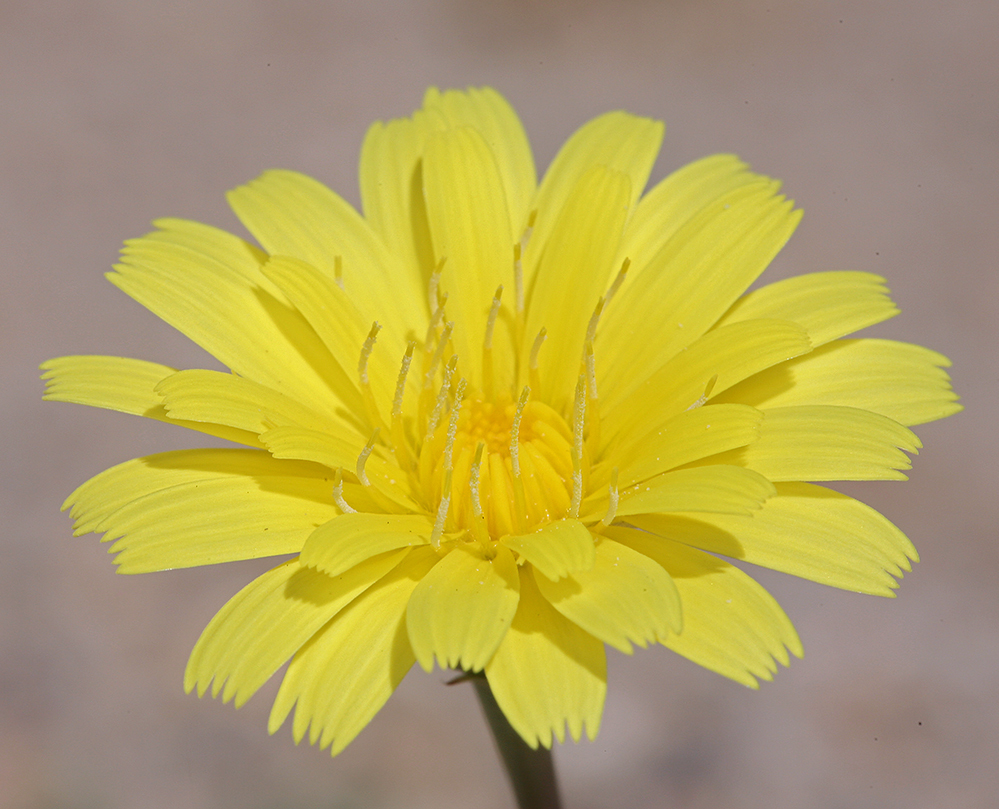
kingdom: Plantae
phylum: Tracheophyta
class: Magnoliopsida
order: Asterales
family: Asteraceae
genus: Malacothrix
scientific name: Malacothrix glabrata
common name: Smooth desert-dandelion
